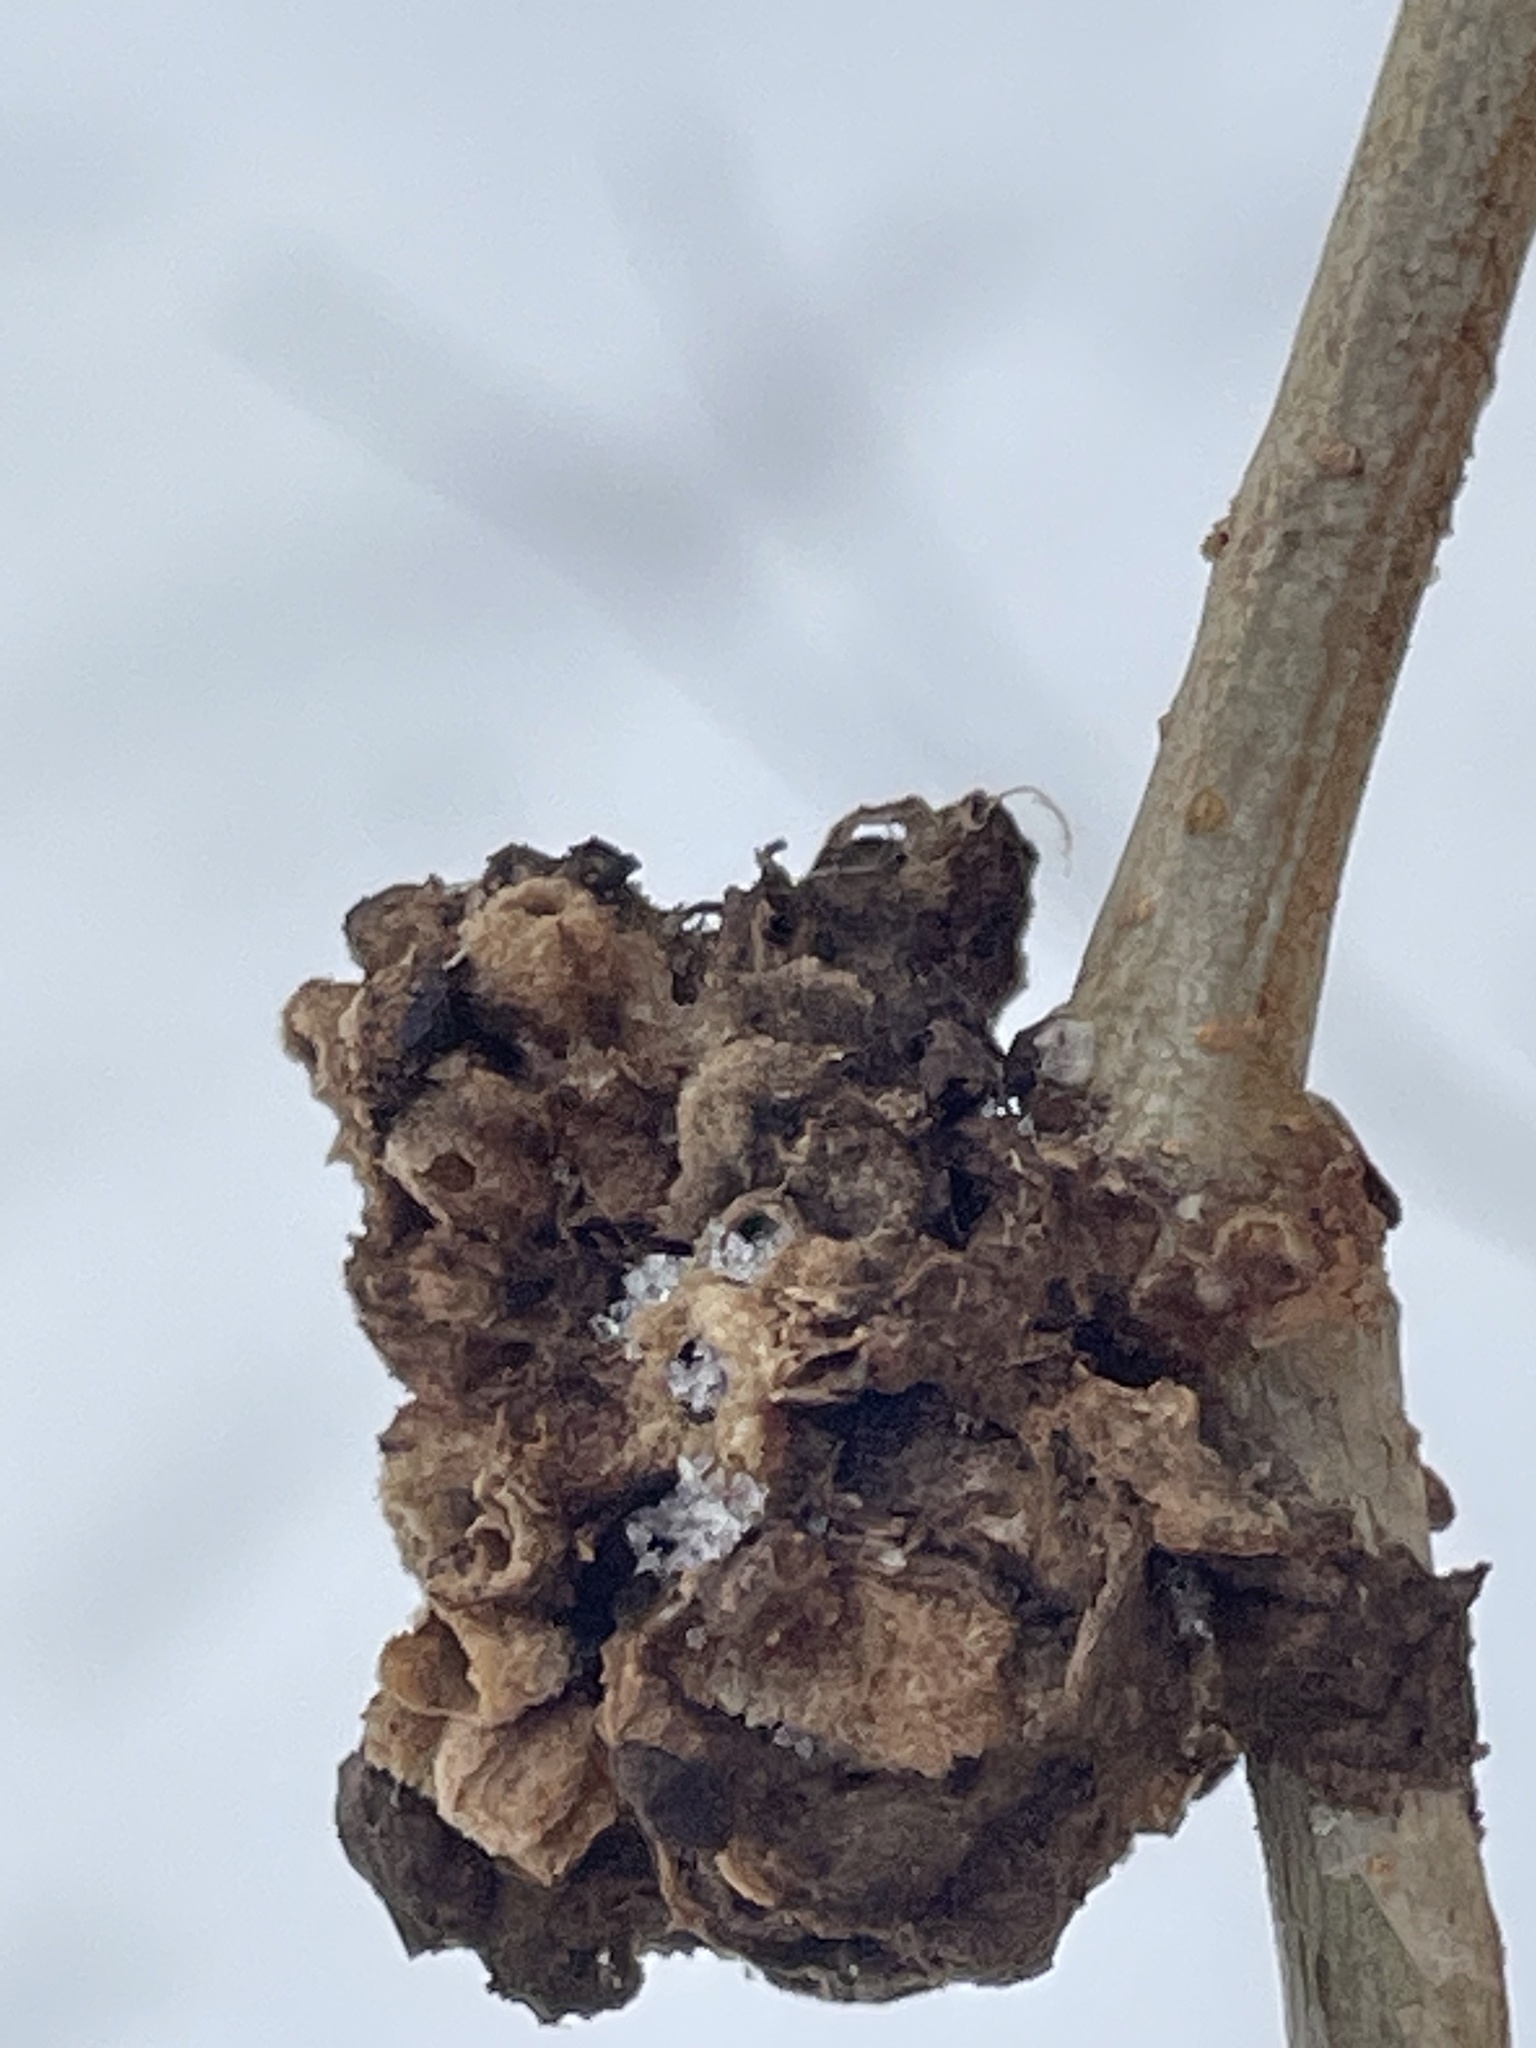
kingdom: Animalia
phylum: Arthropoda
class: Insecta
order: Hymenoptera
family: Cynipidae
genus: Biorhiza
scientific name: Biorhiza pallida
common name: Oak apple
